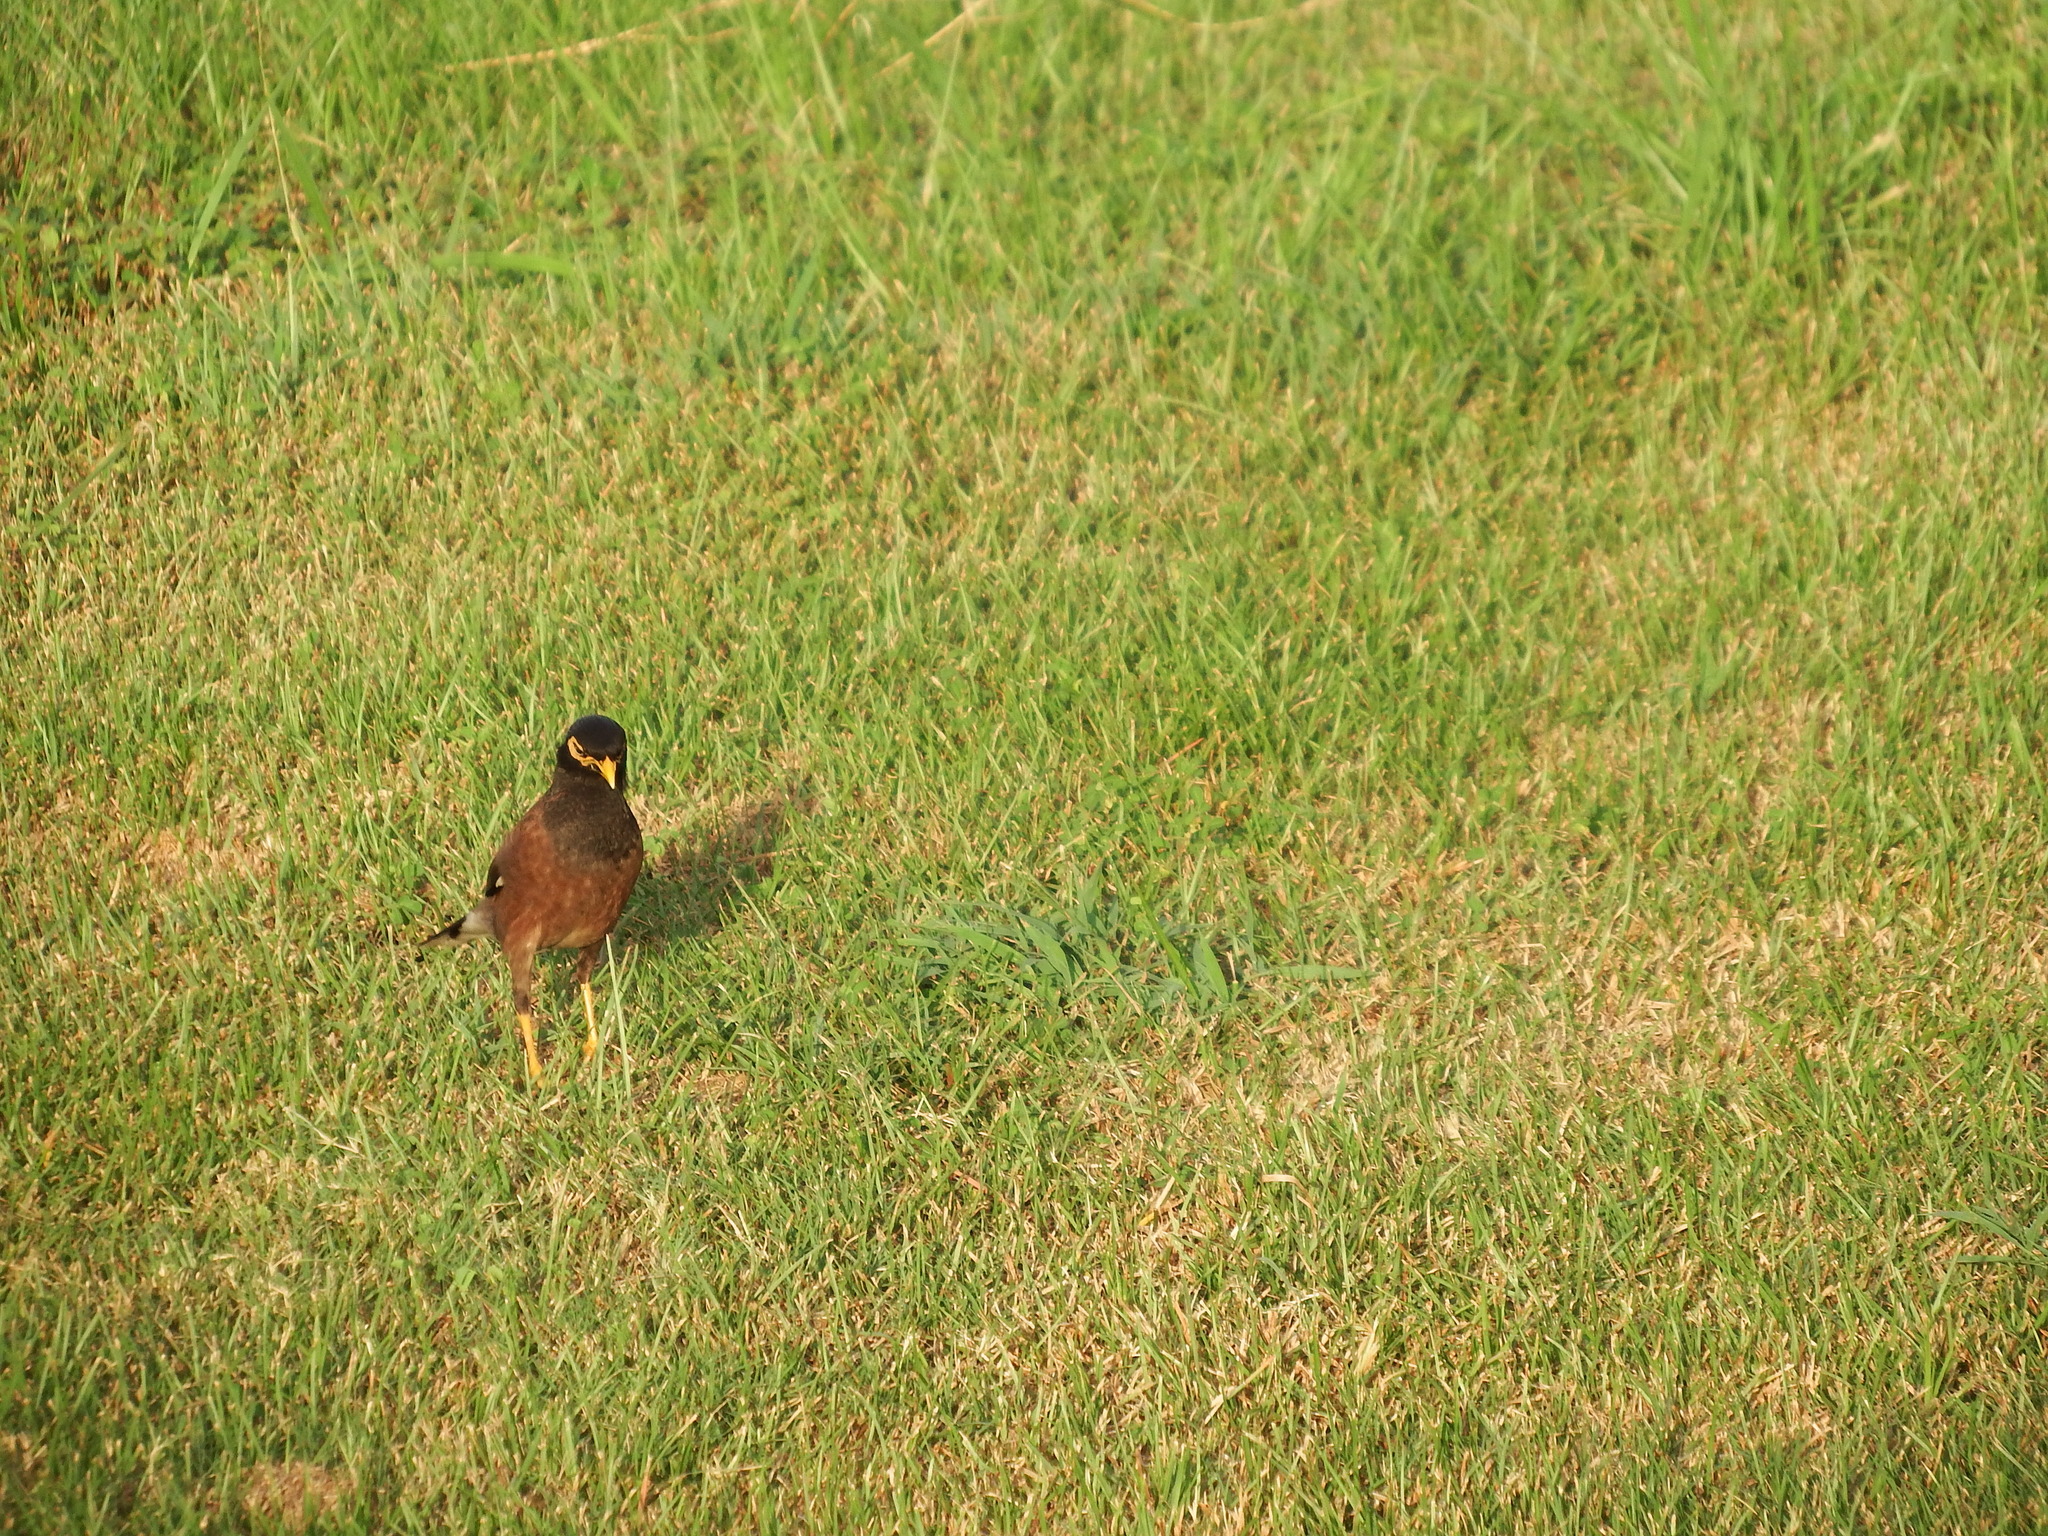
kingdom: Animalia
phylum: Chordata
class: Aves
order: Passeriformes
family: Sturnidae
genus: Acridotheres
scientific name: Acridotheres tristis
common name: Common myna
